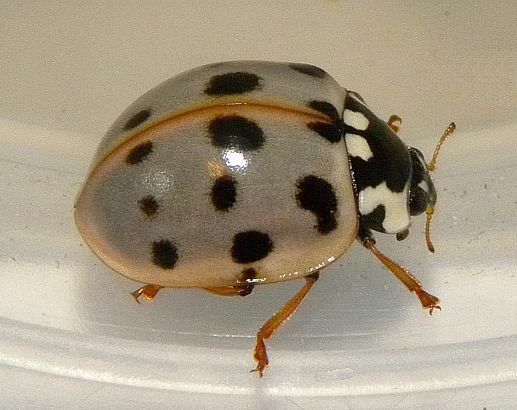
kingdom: Animalia
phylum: Arthropoda
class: Insecta
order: Coleoptera
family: Coccinellidae
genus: Anatis
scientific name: Anatis labiculata
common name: Fifteen-spotted lady beetle
